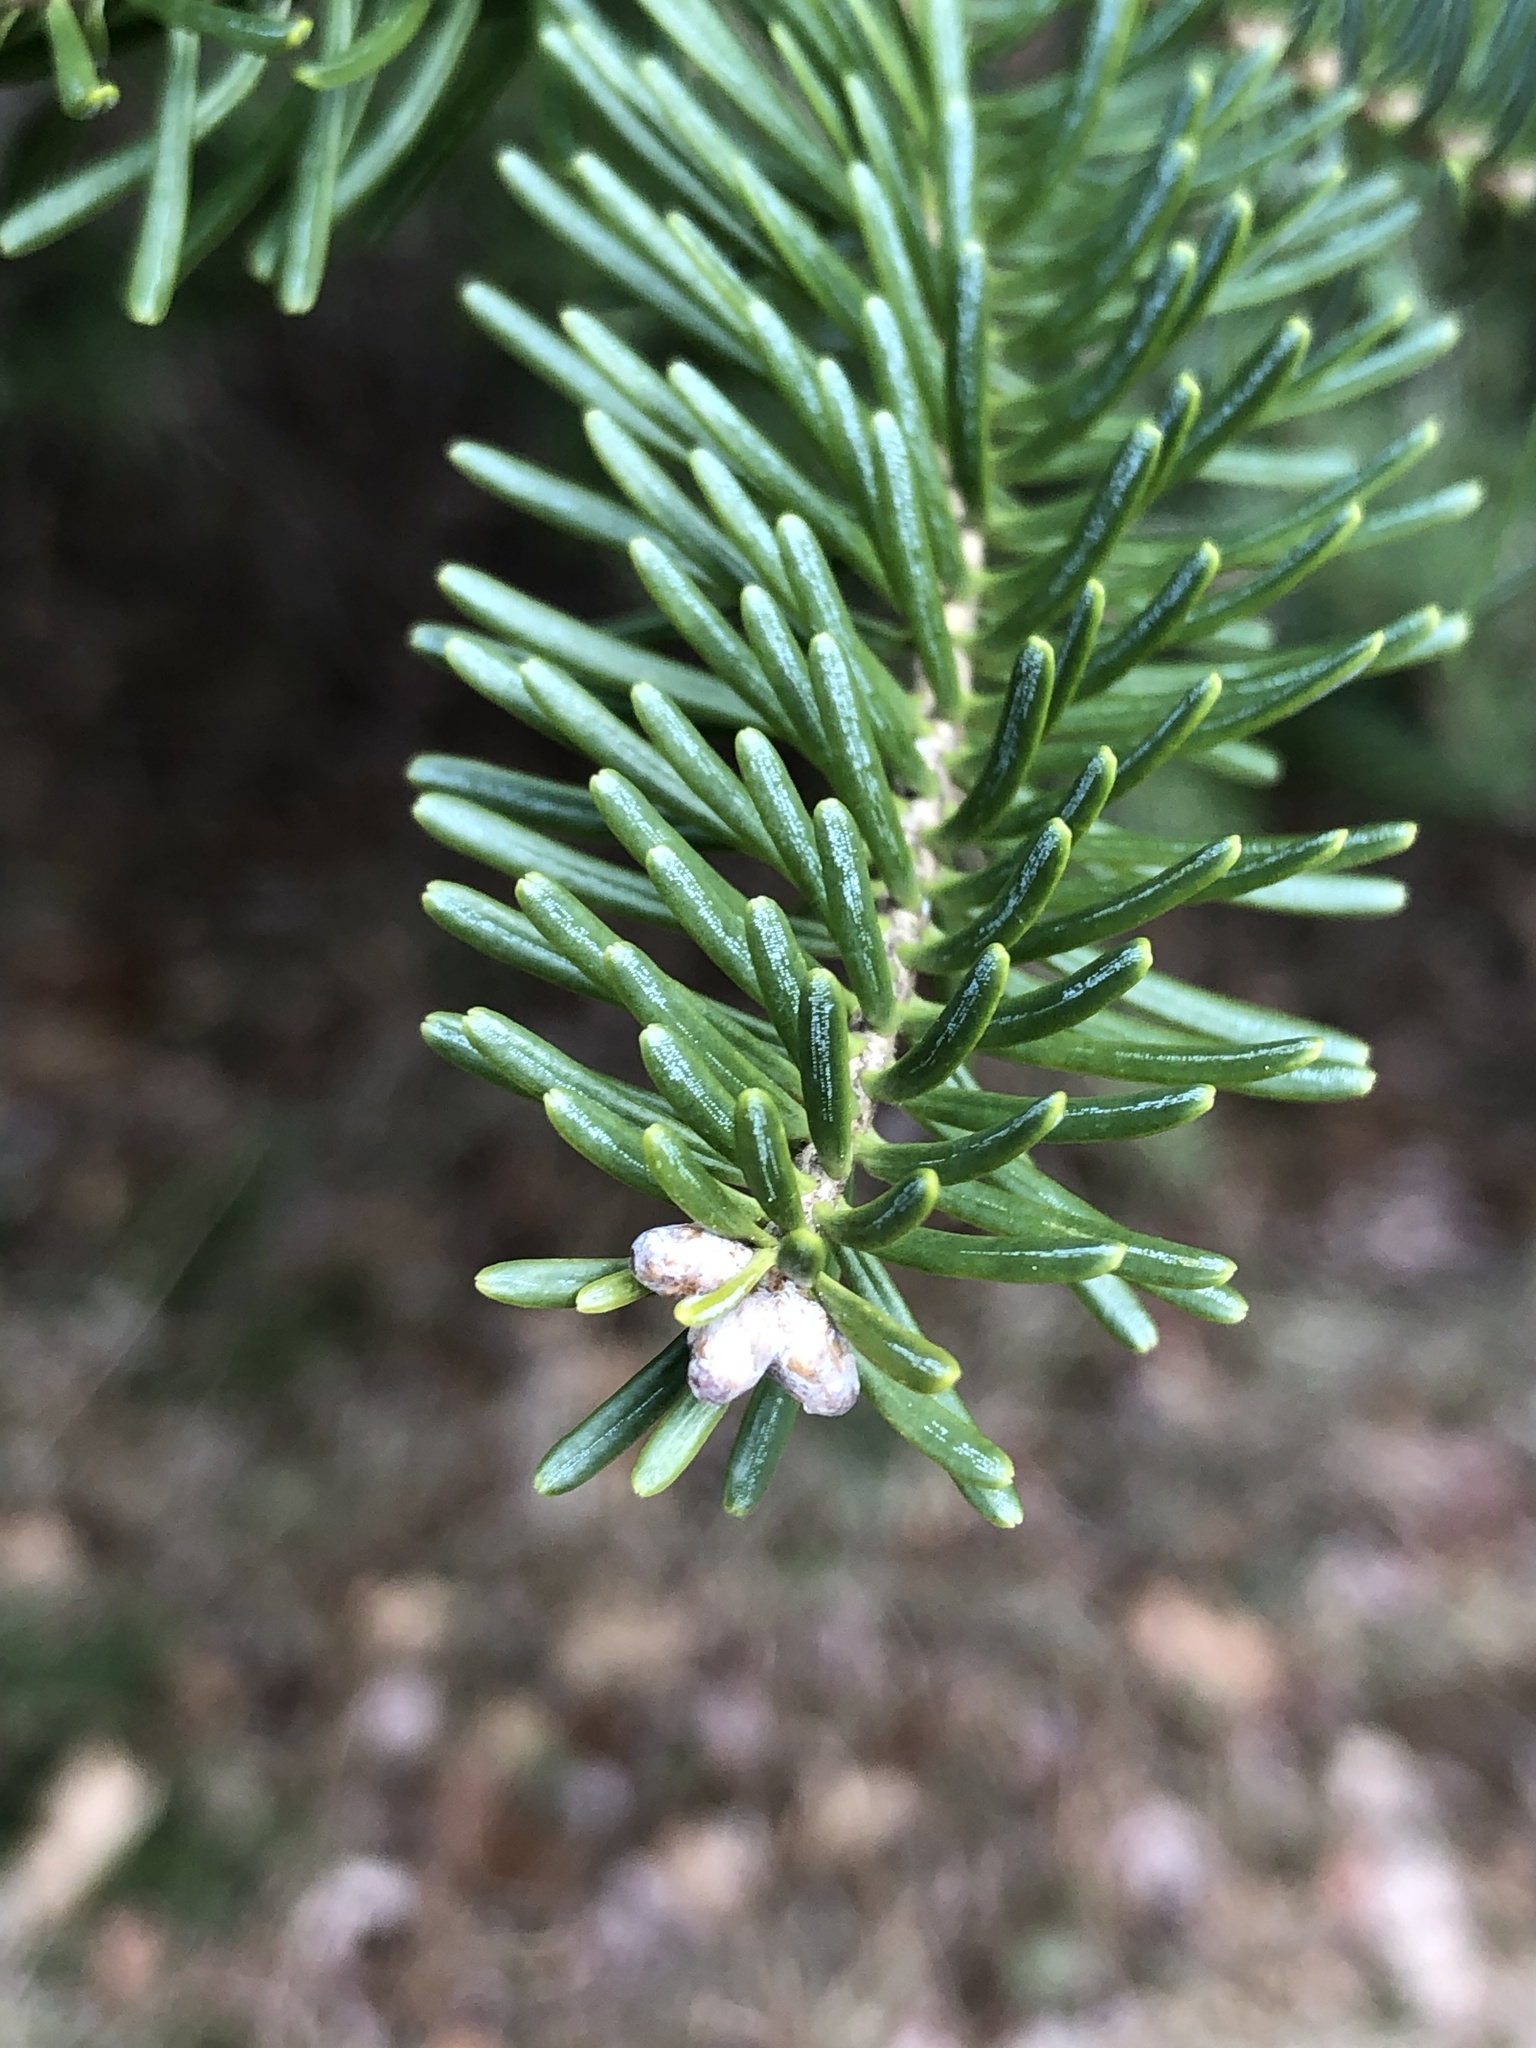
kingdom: Plantae
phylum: Tracheophyta
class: Pinopsida
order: Pinales
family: Pinaceae
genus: Abies
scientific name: Abies balsamea
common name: Balsam fir
